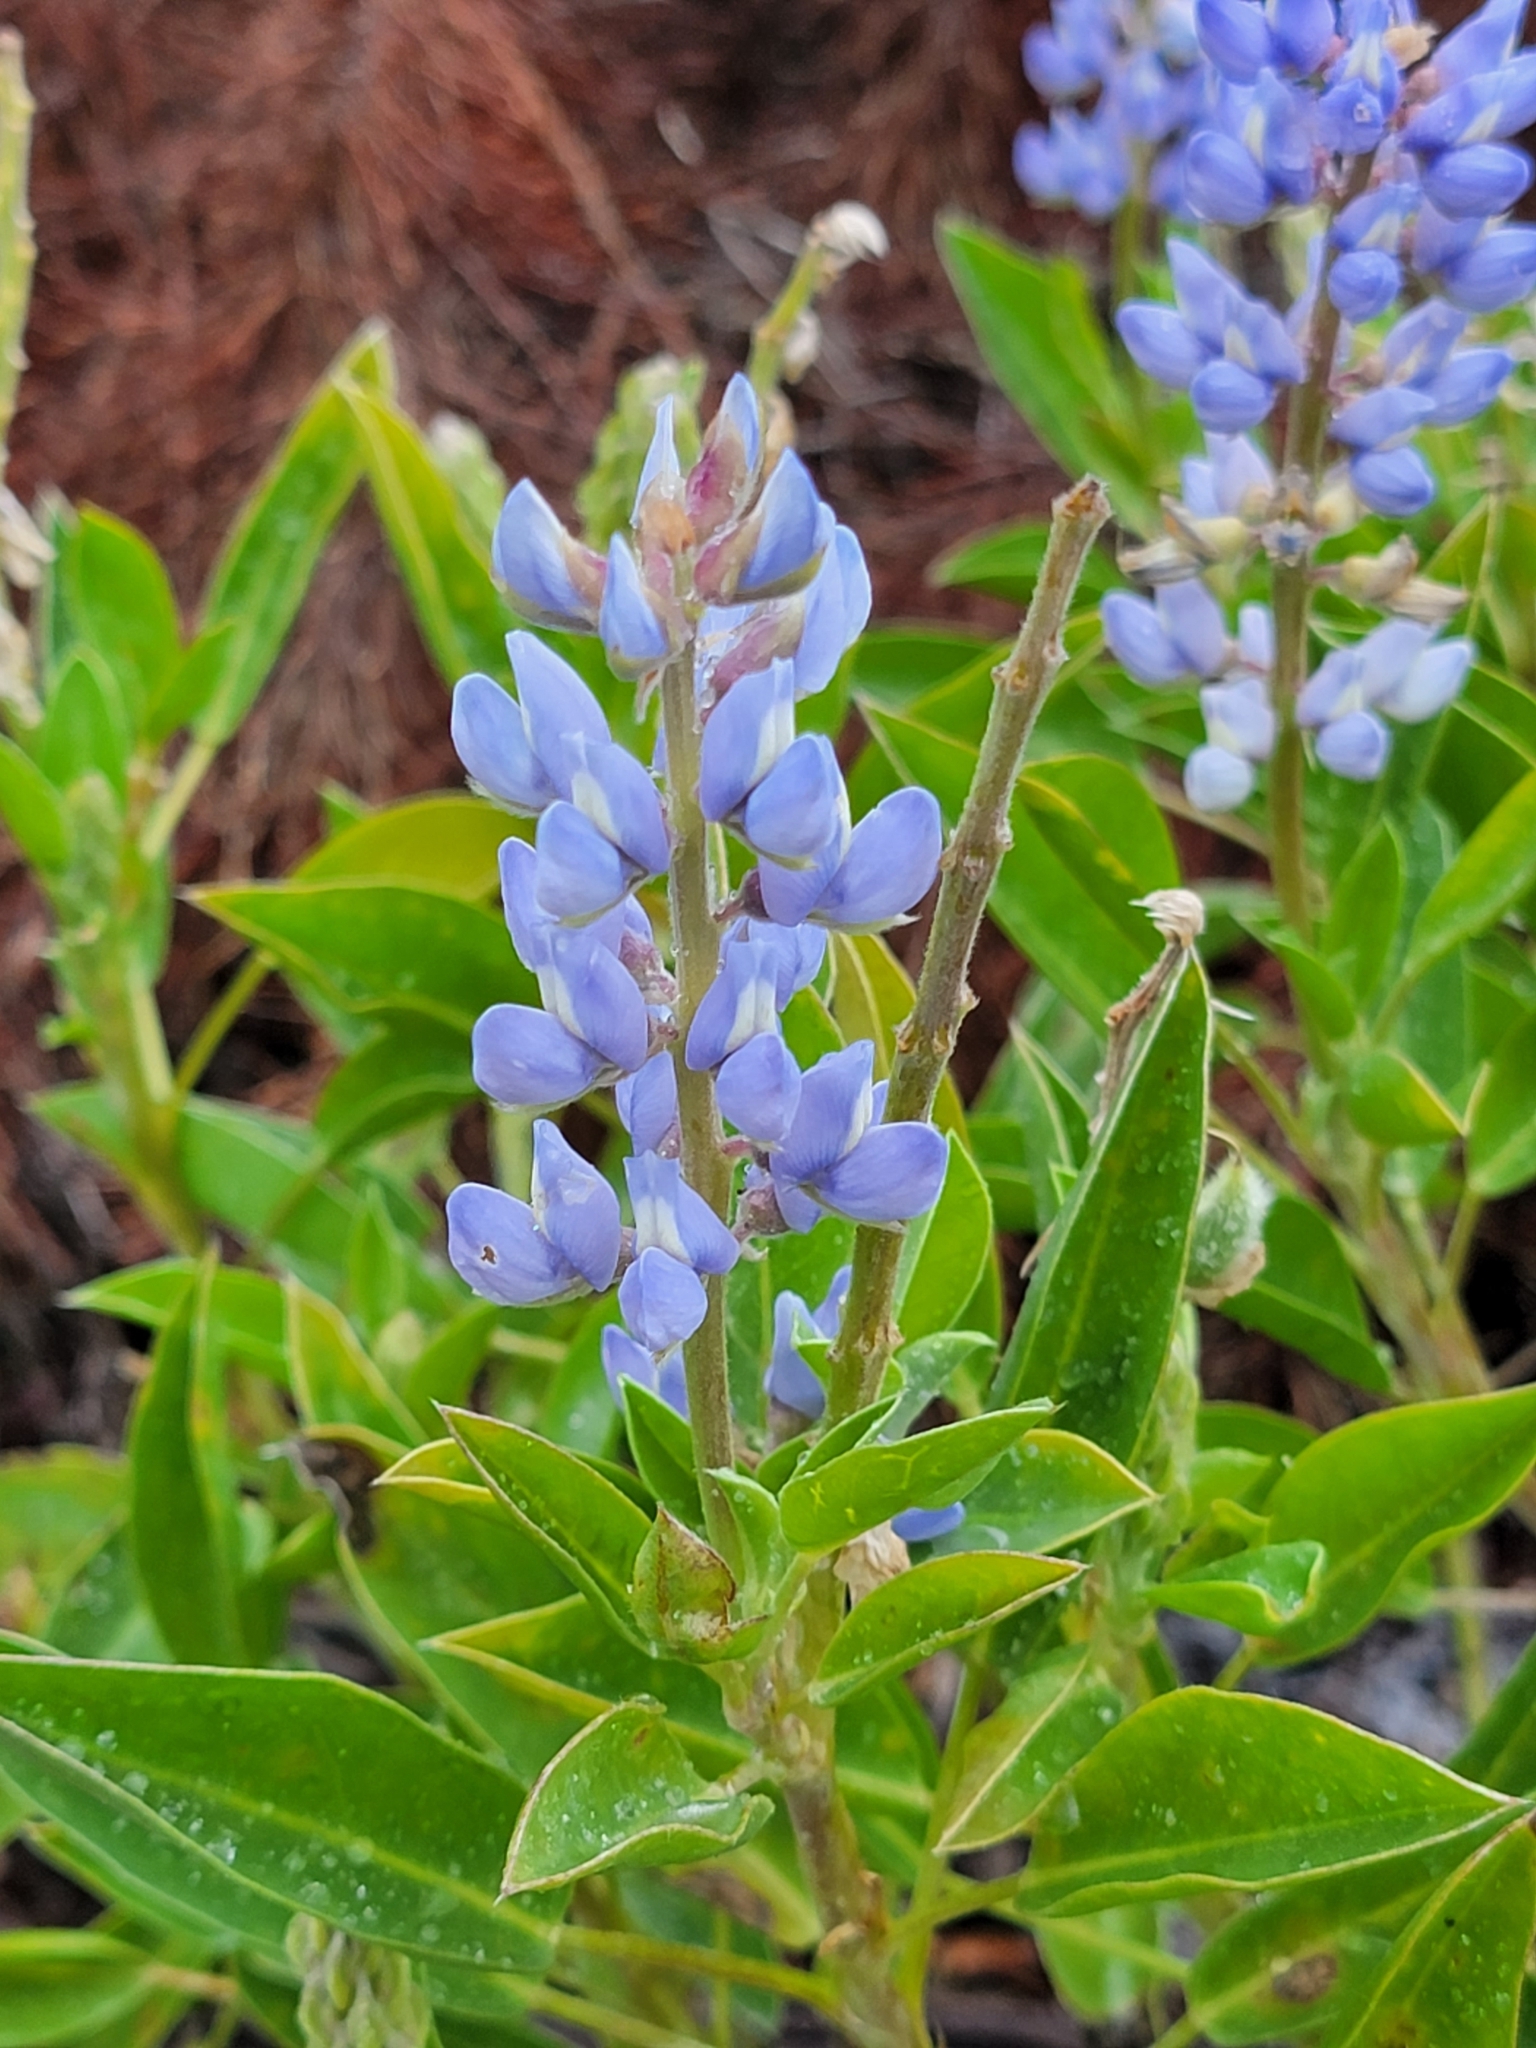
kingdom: Plantae
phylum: Tracheophyta
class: Magnoliopsida
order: Fabales
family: Fabaceae
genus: Lupinus
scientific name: Lupinus
